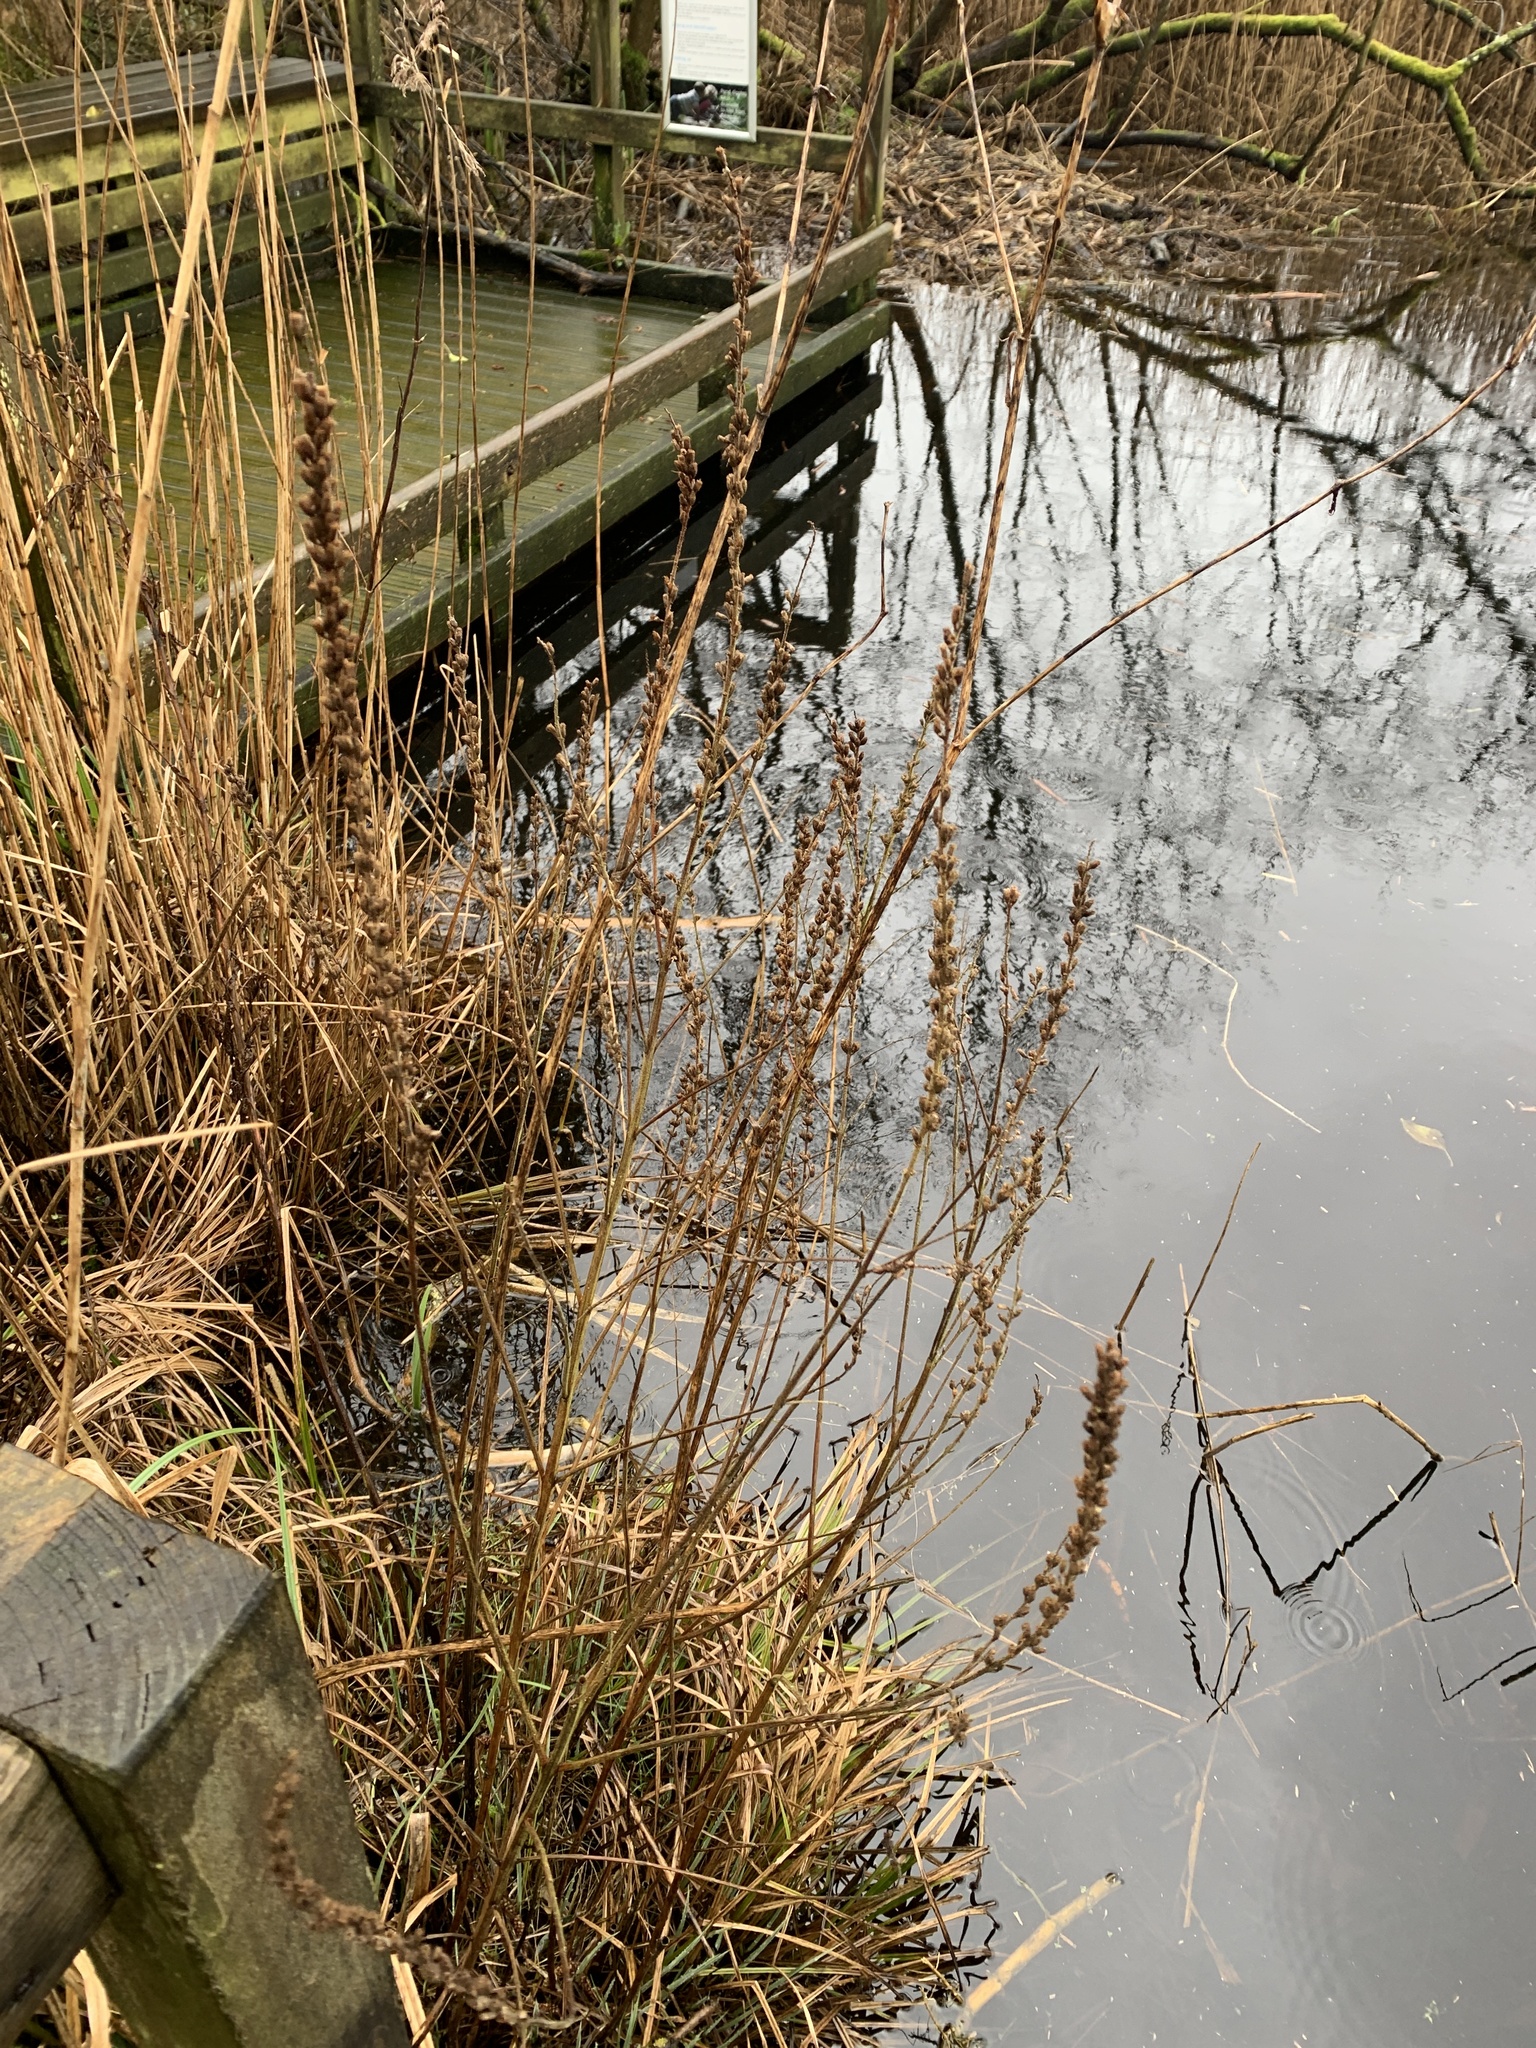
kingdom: Plantae
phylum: Tracheophyta
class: Magnoliopsida
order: Myrtales
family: Lythraceae
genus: Lythrum
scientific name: Lythrum salicaria
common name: Purple loosestrife
